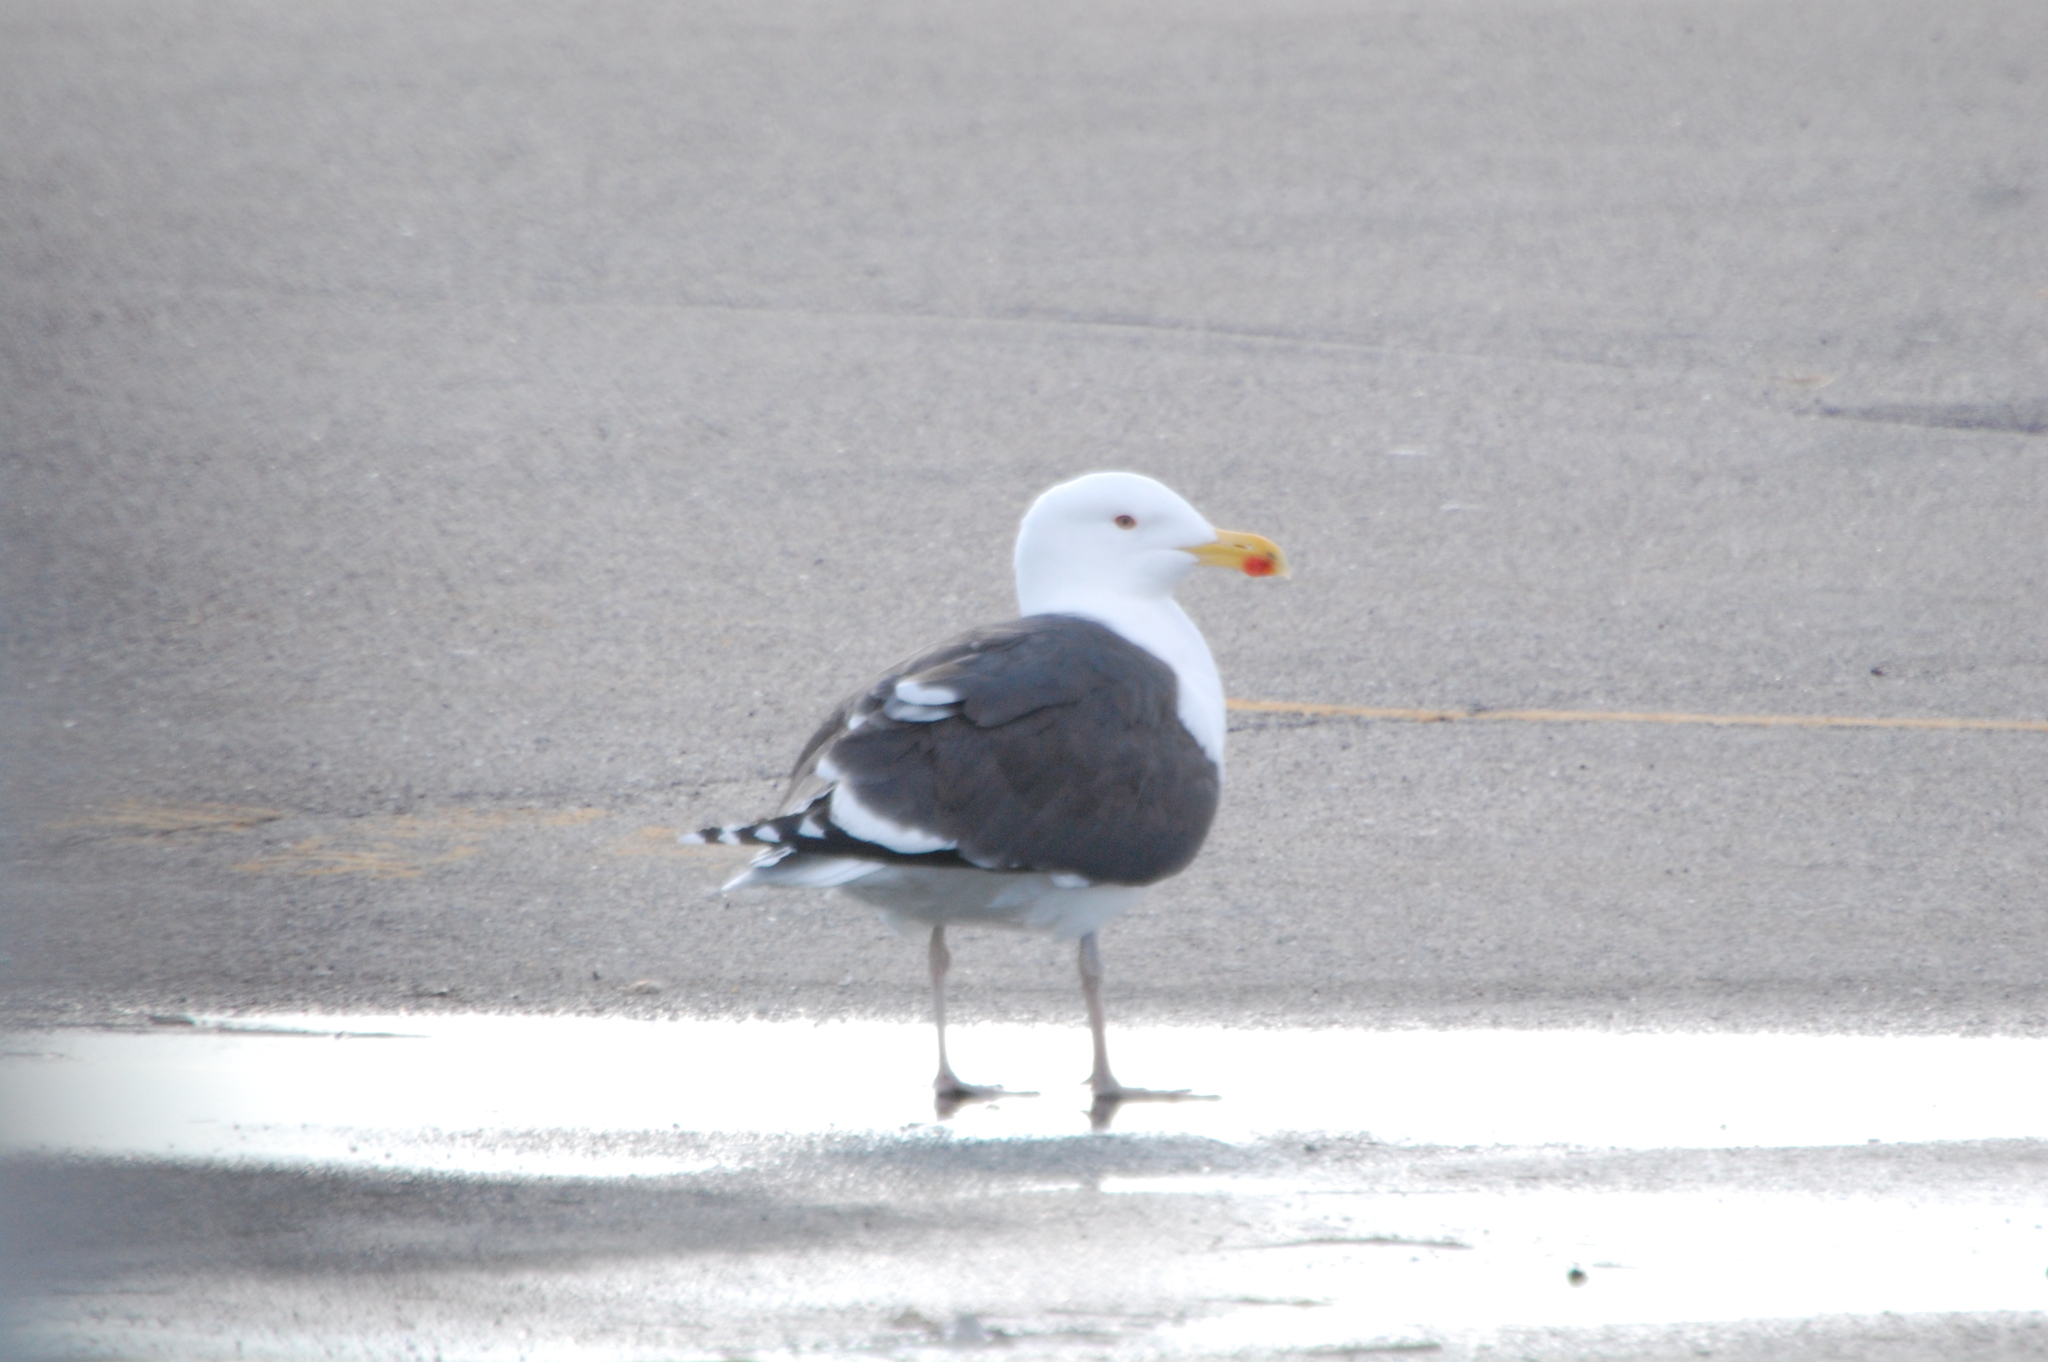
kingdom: Animalia
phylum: Chordata
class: Aves
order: Charadriiformes
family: Laridae
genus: Larus
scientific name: Larus marinus
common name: Great black-backed gull
